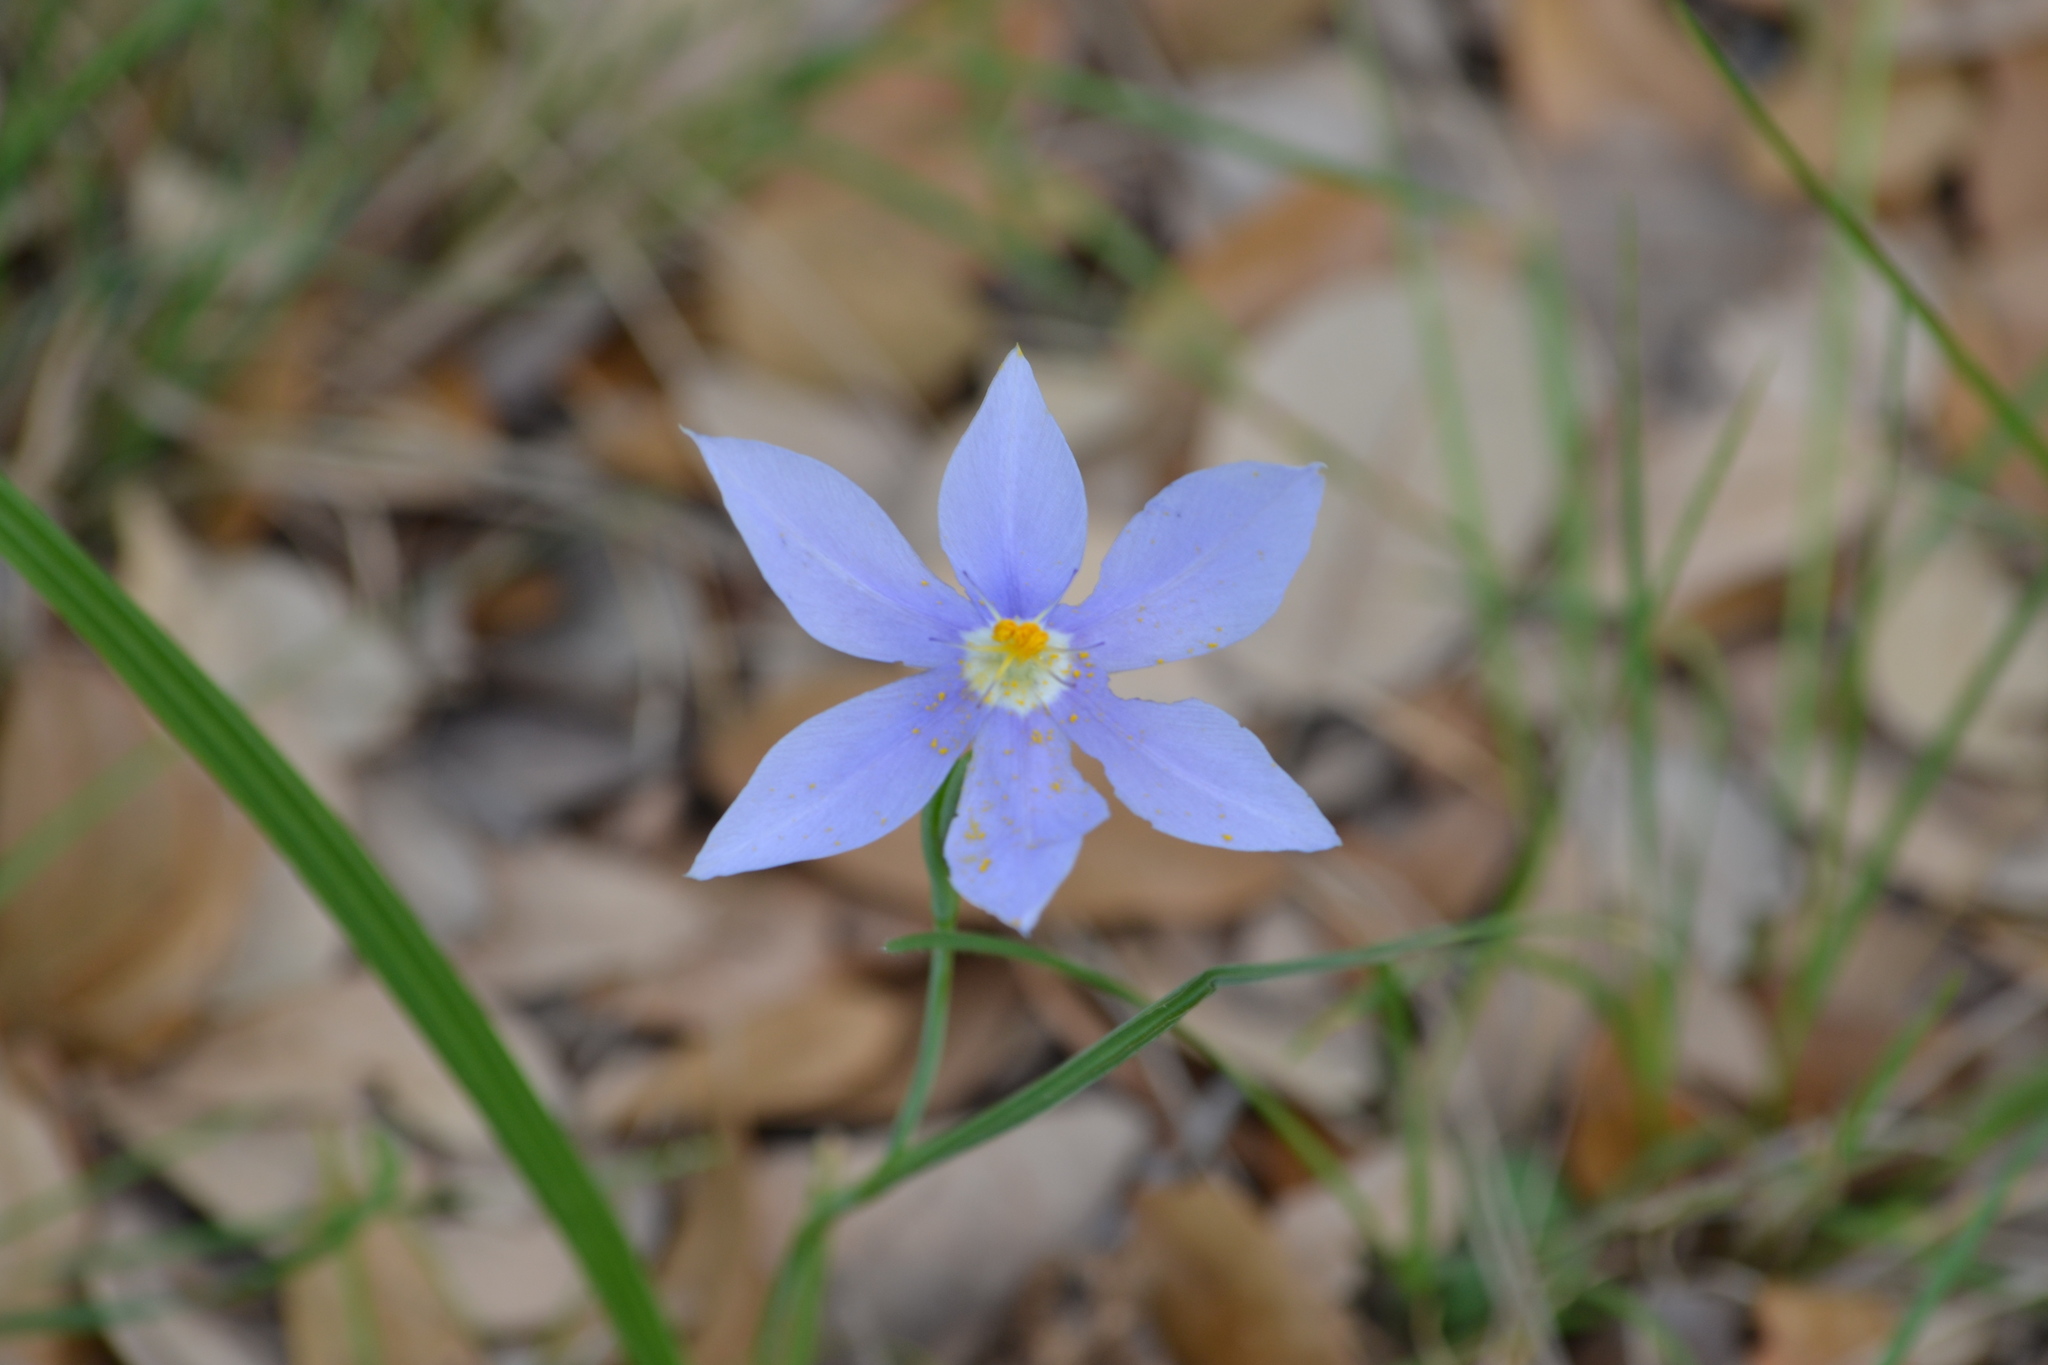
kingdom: Plantae
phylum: Tracheophyta
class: Liliopsida
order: Asparagales
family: Iridaceae
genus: Nemastylis
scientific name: Nemastylis geminiflora
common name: Prairie celestial
